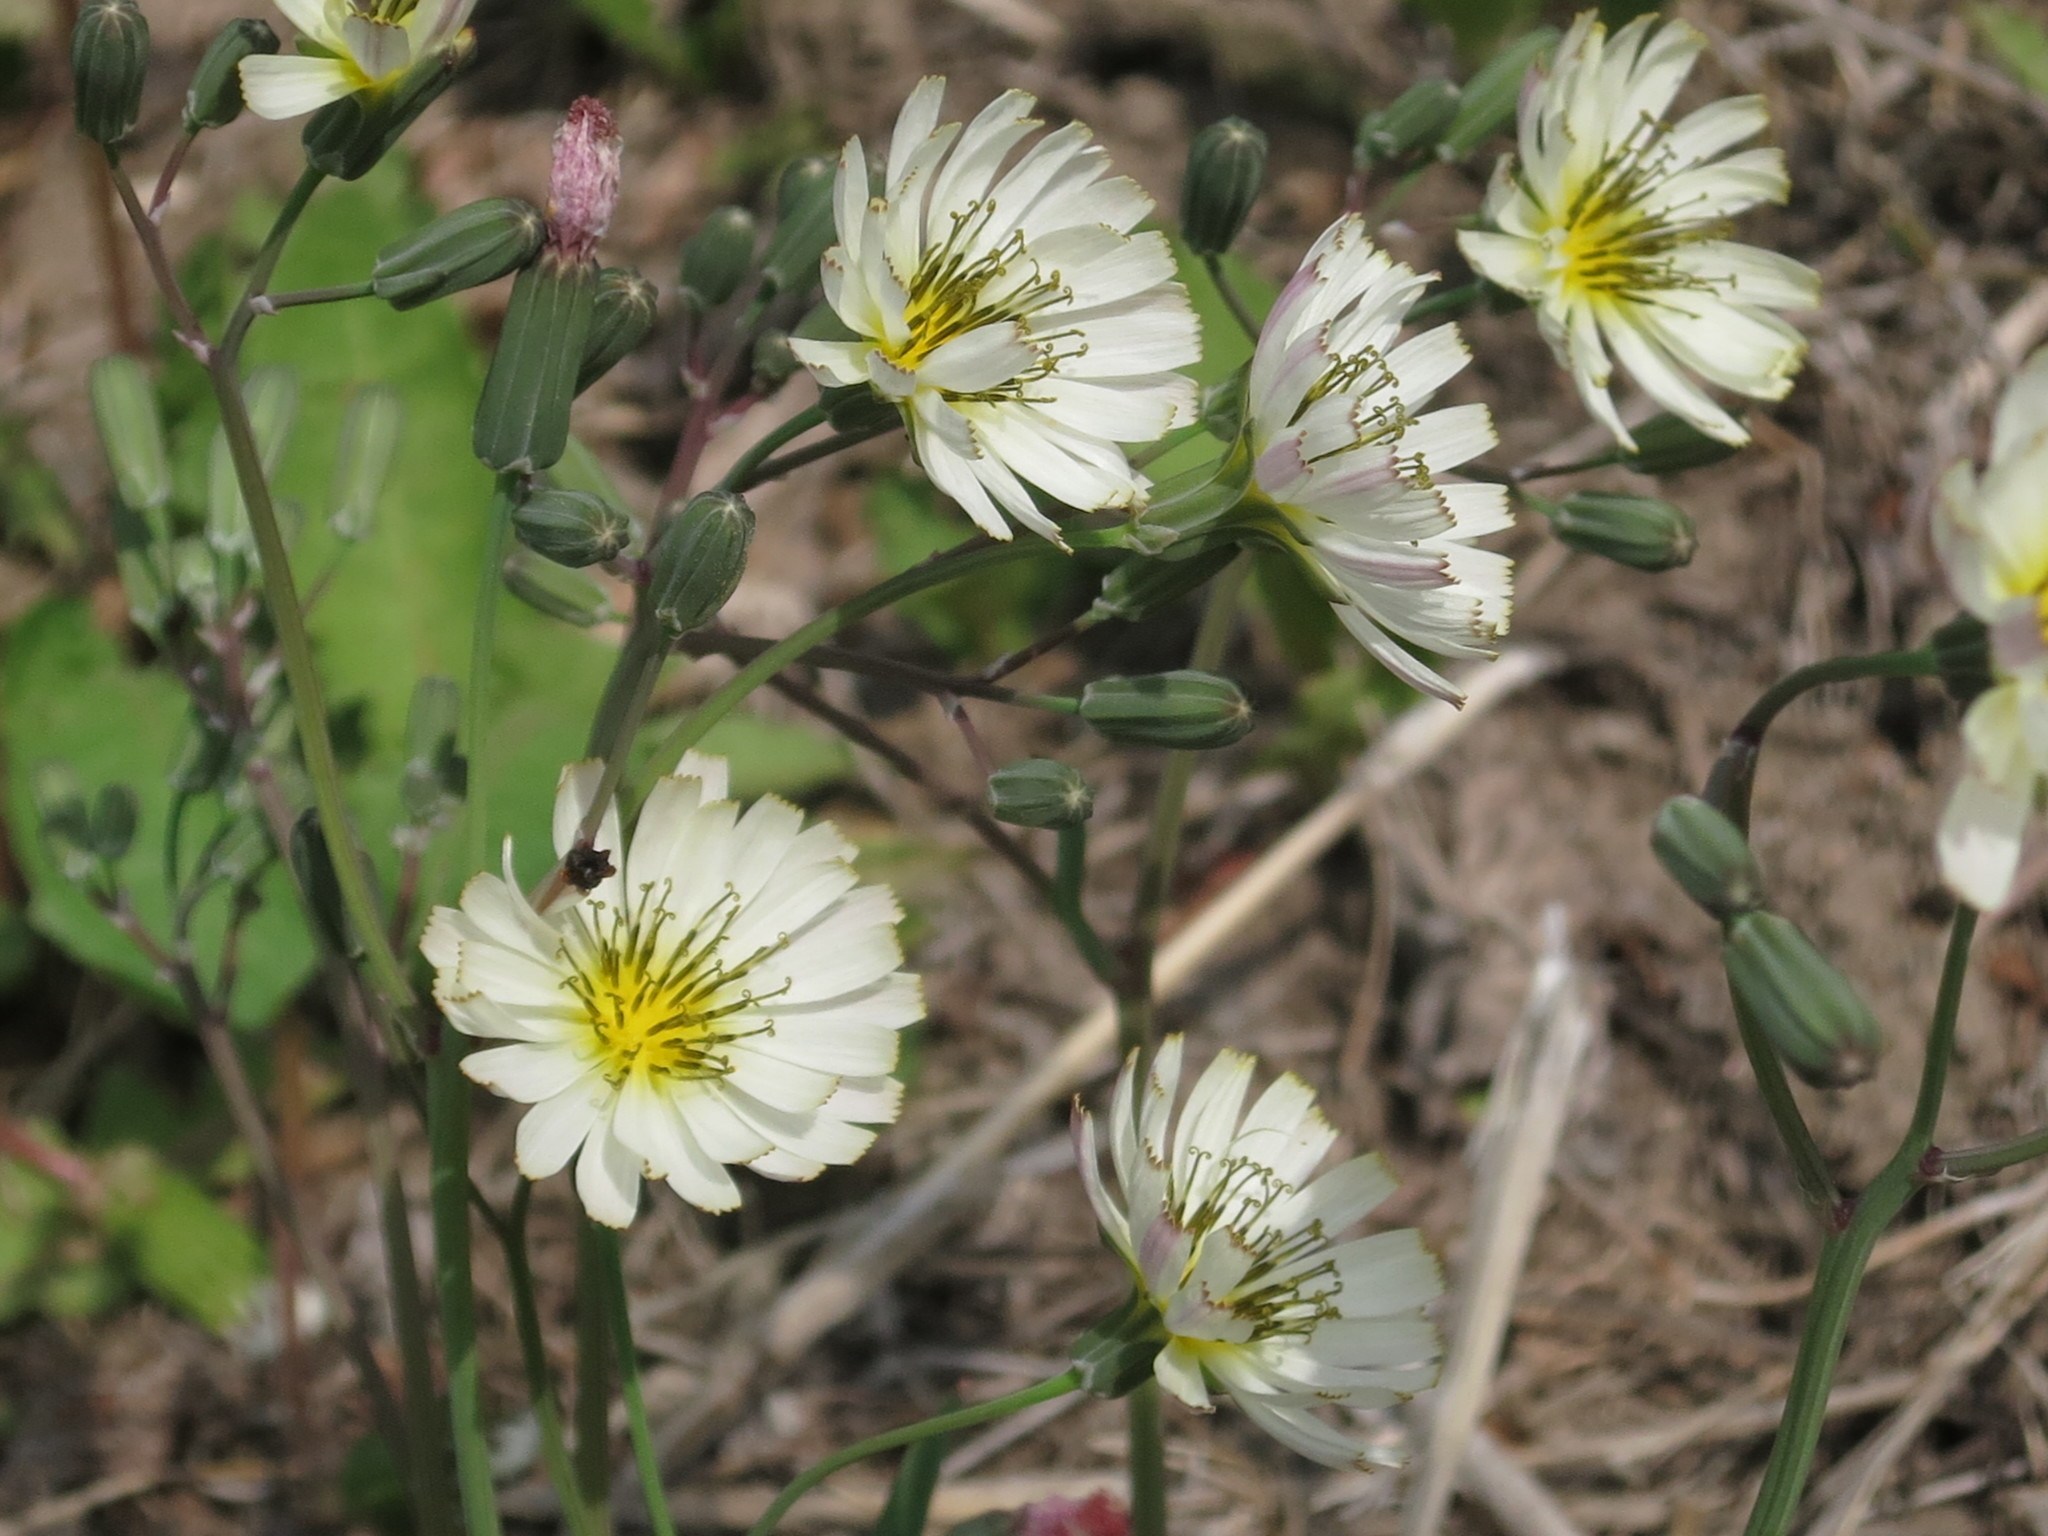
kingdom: Plantae
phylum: Tracheophyta
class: Magnoliopsida
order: Asterales
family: Asteraceae
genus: Ixeris
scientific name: Ixeris chinensis
